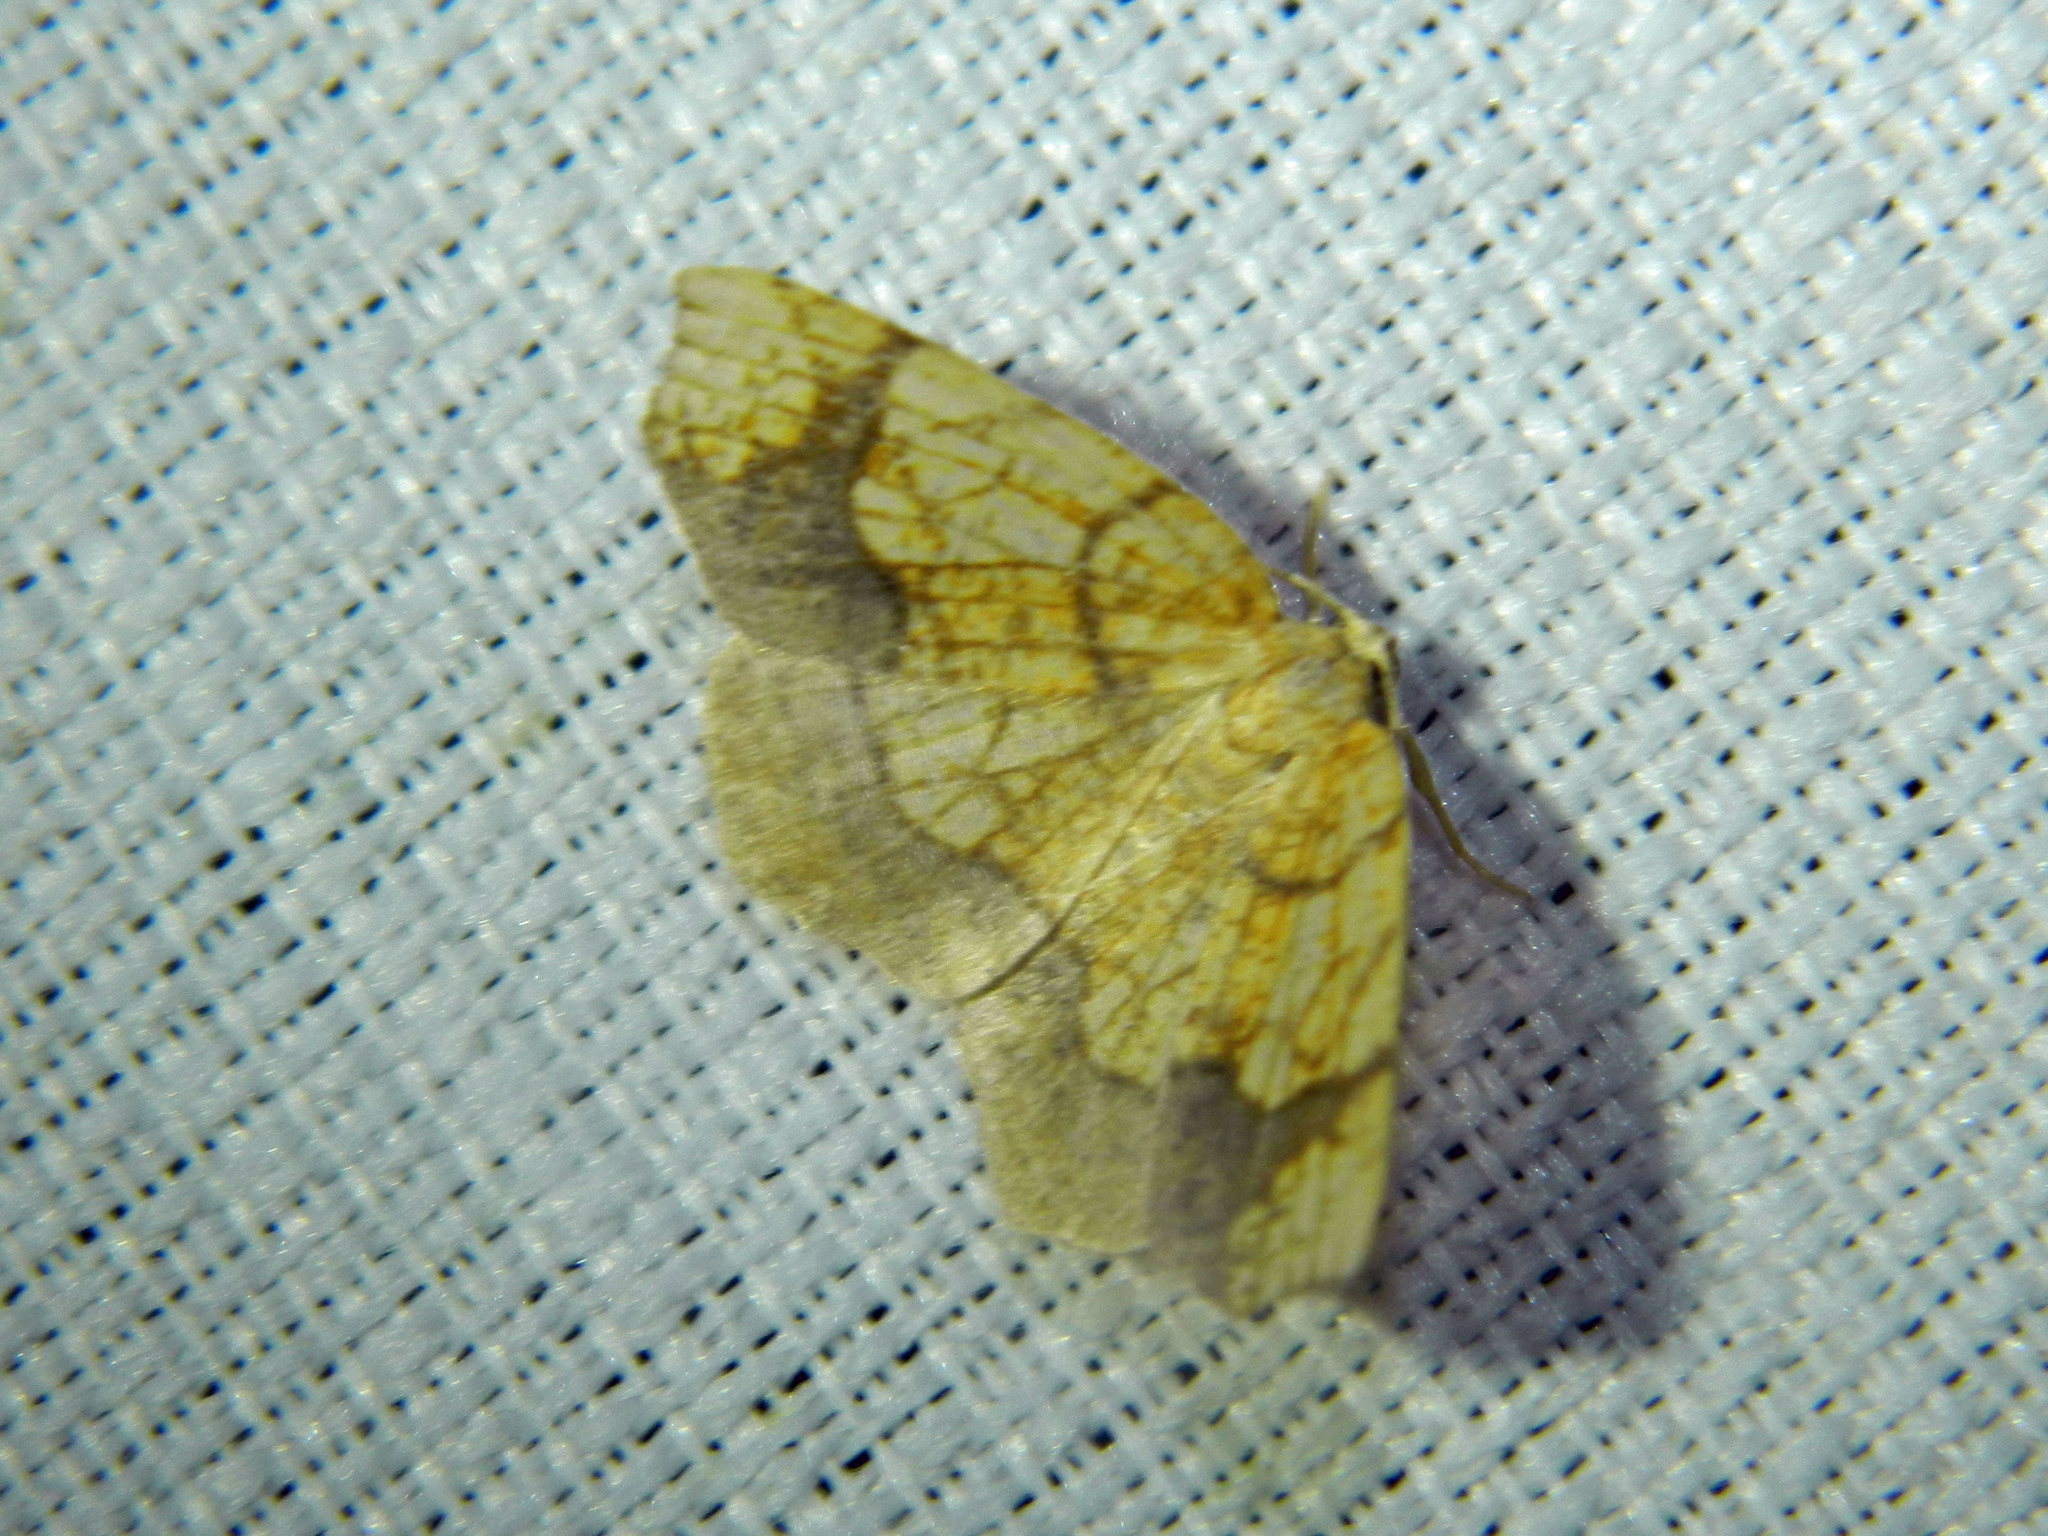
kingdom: Animalia
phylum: Arthropoda
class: Insecta
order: Lepidoptera
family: Geometridae
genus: Nematocampa
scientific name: Nematocampa resistaria
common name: Horned spanworm moth
